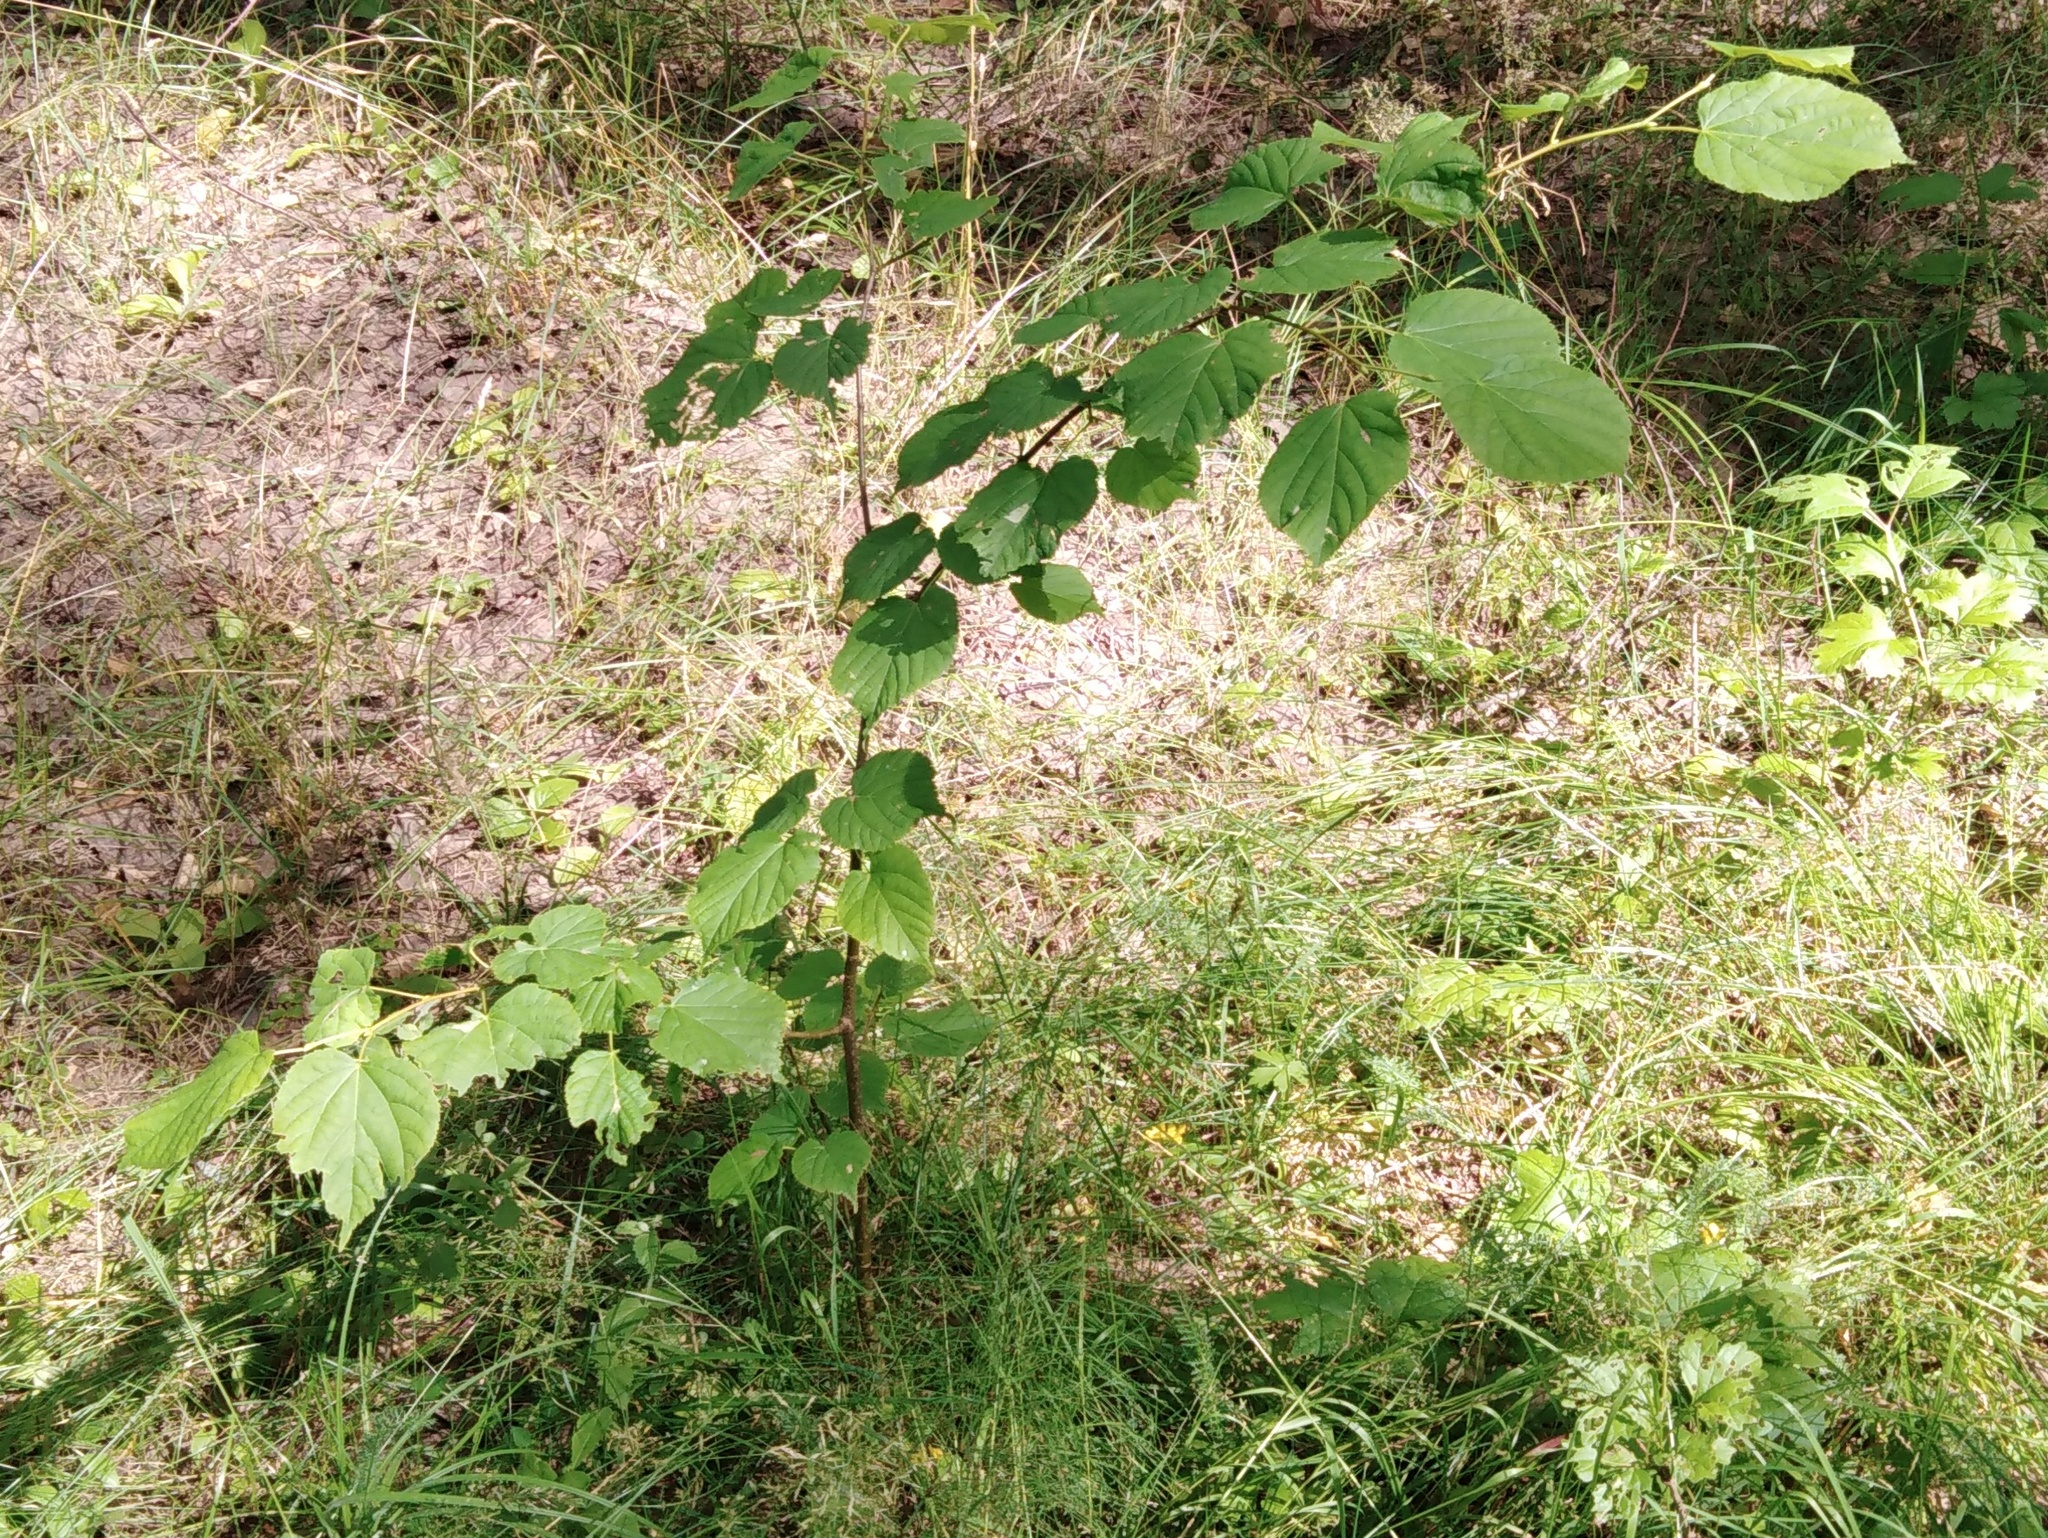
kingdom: Plantae
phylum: Tracheophyta
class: Magnoliopsida
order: Malvales
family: Malvaceae
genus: Tilia
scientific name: Tilia cordata
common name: Small-leaved lime
